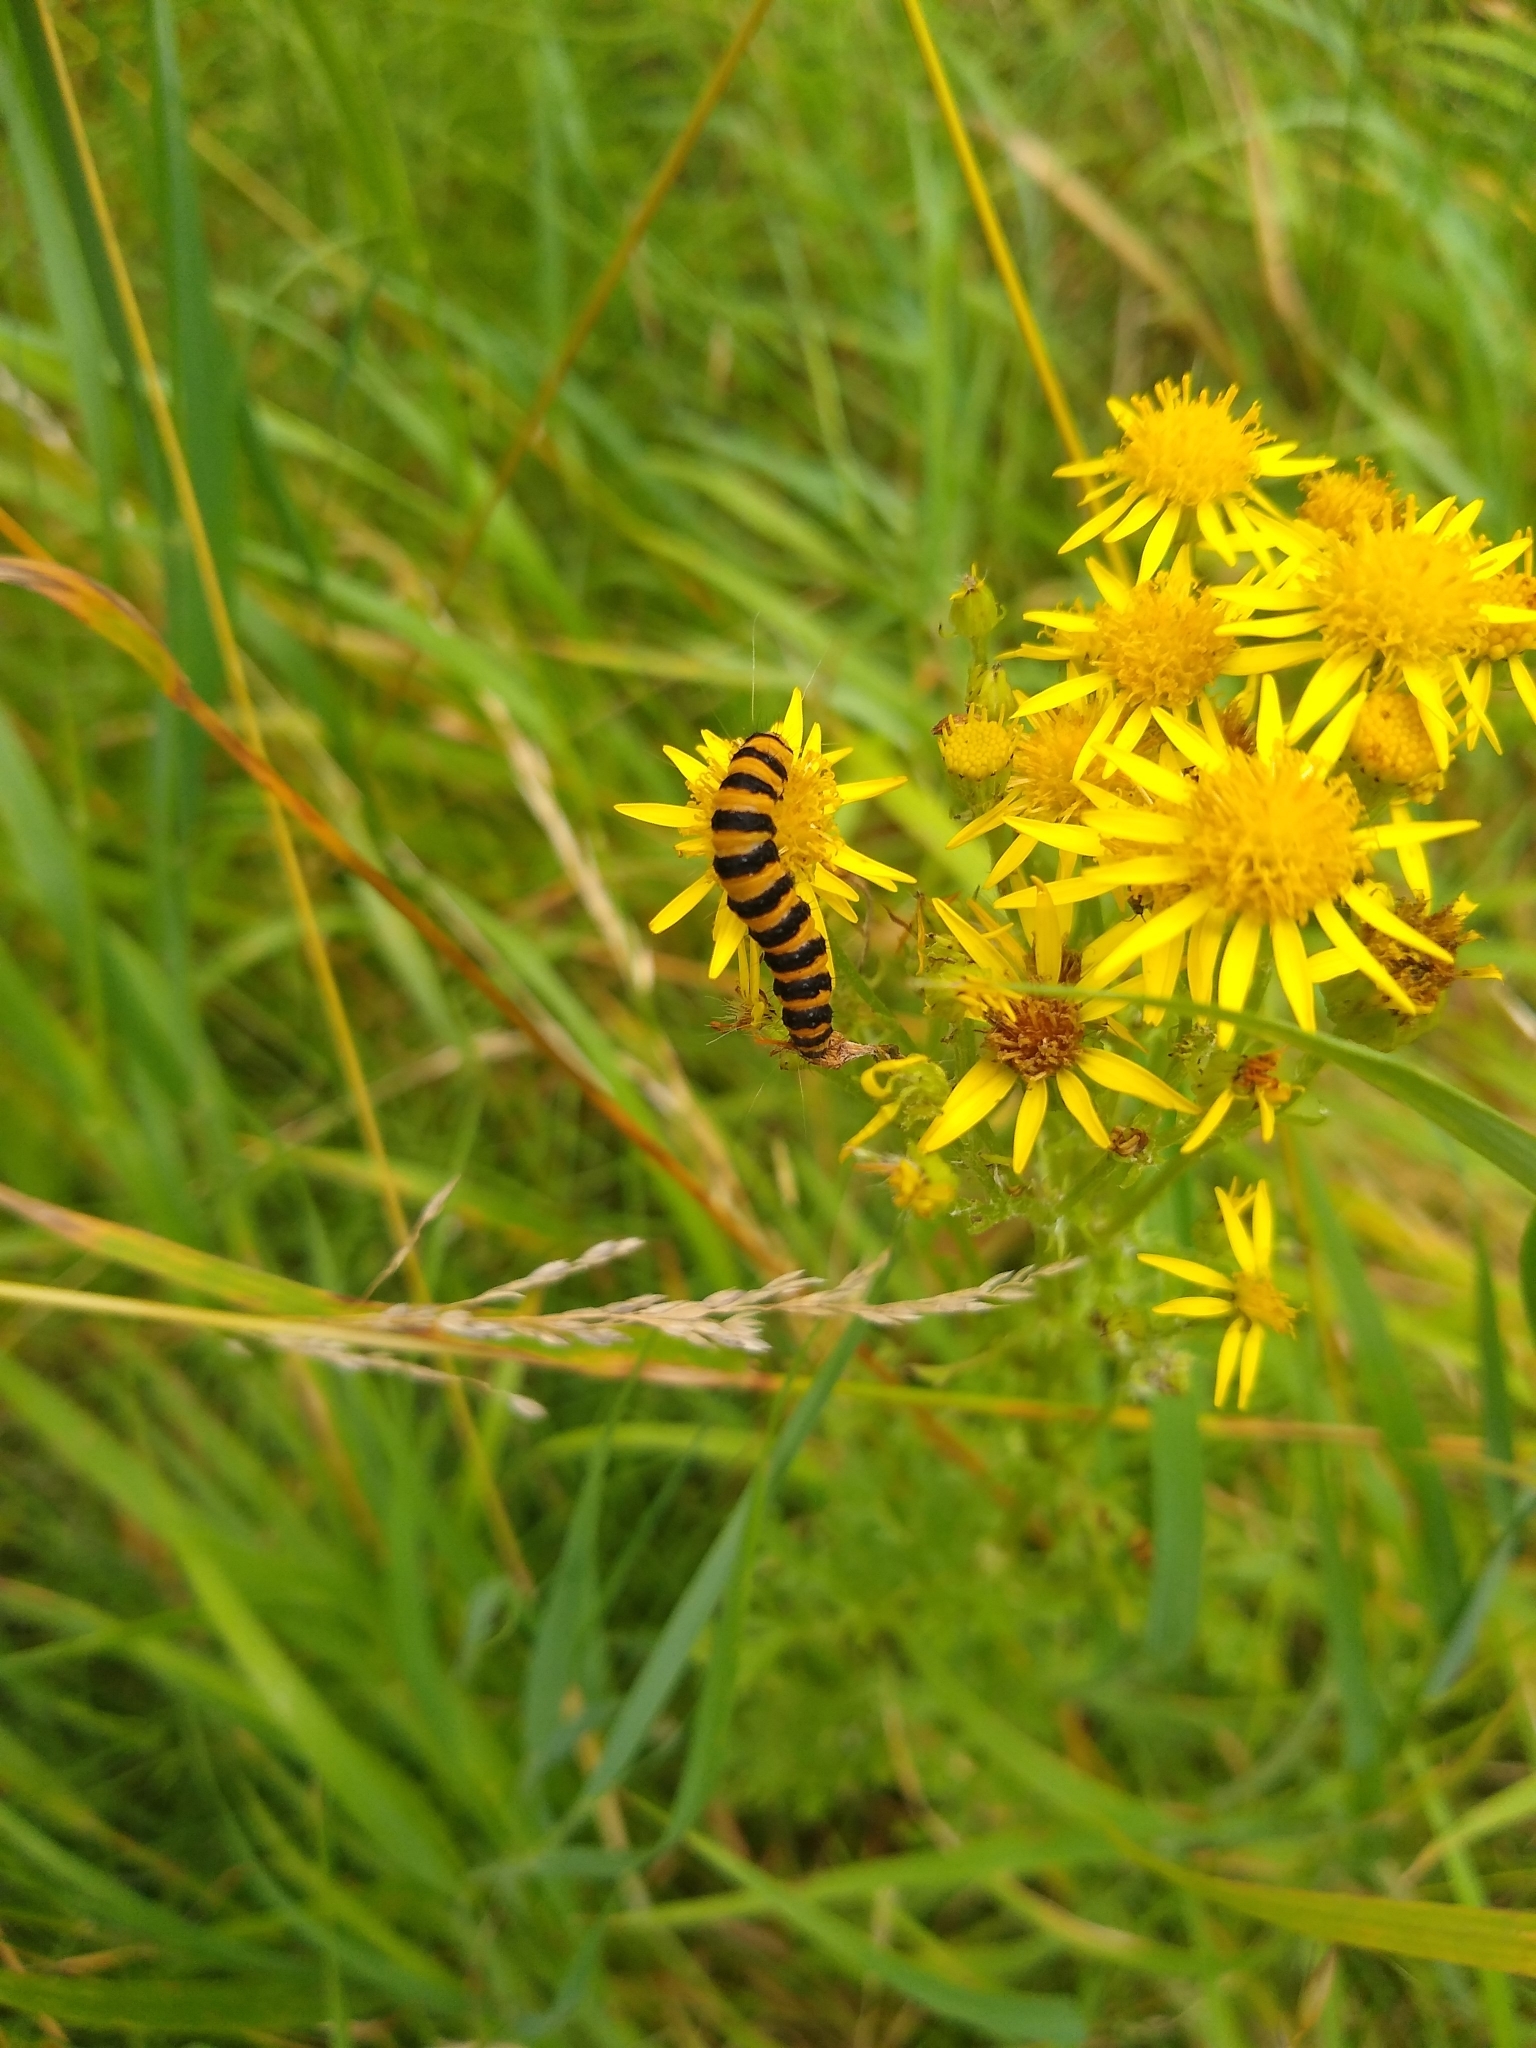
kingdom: Animalia
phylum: Arthropoda
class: Insecta
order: Lepidoptera
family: Erebidae
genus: Tyria
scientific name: Tyria jacobaeae
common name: Cinnabar
